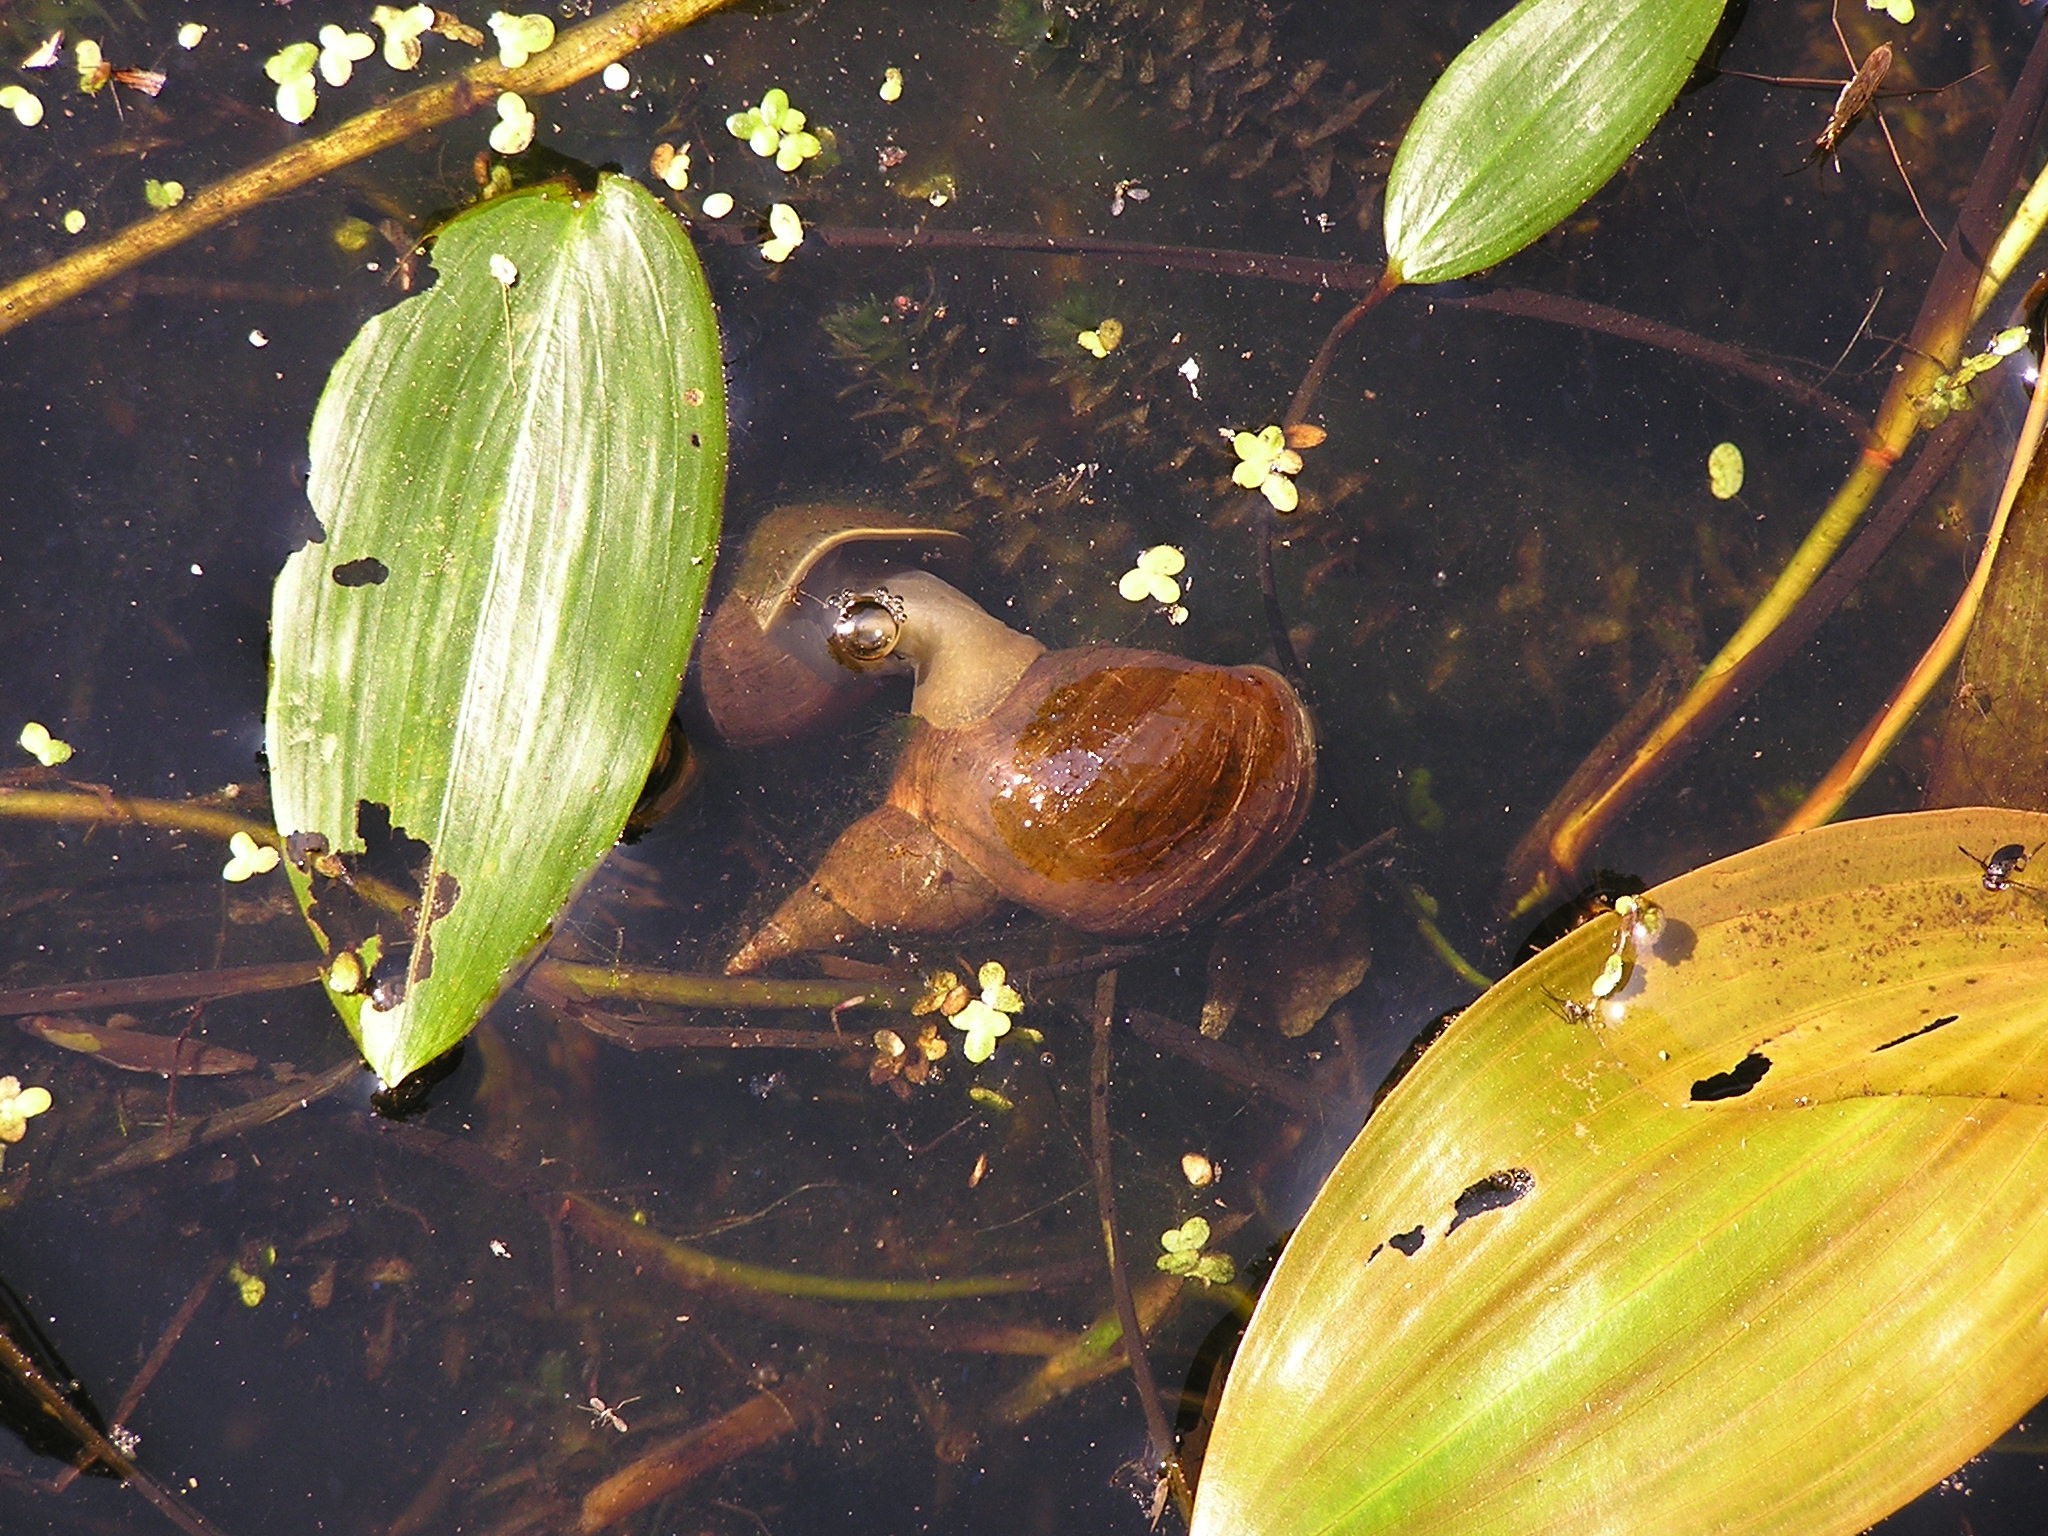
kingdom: Animalia
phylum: Mollusca
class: Gastropoda
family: Lymnaeidae
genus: Lymnaea
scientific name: Lymnaea stagnalis
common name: Great pond snail
